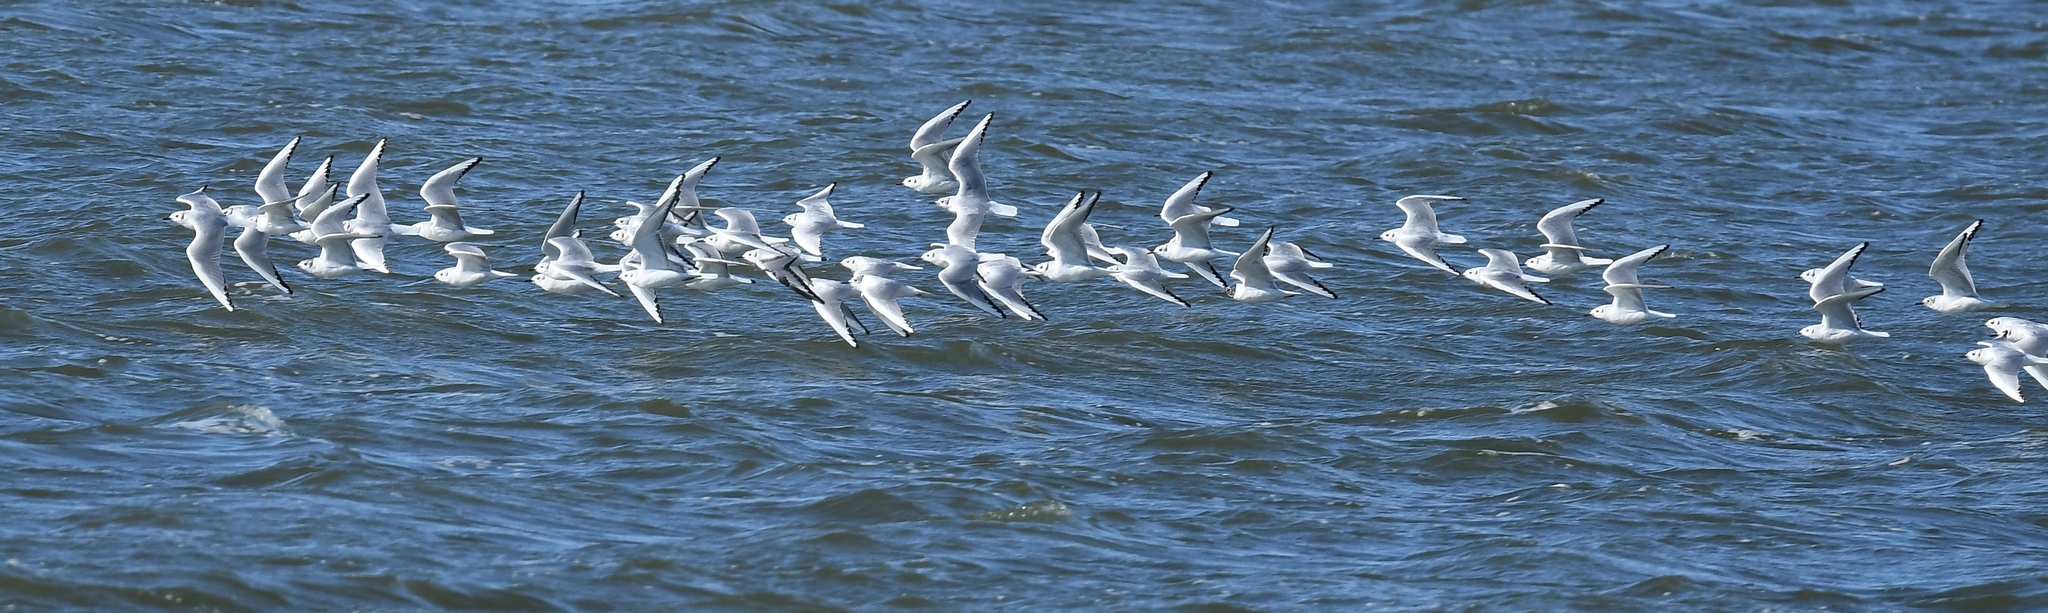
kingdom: Animalia
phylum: Chordata
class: Aves
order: Charadriiformes
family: Laridae
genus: Chroicocephalus
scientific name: Chroicocephalus philadelphia
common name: Bonaparte's gull
